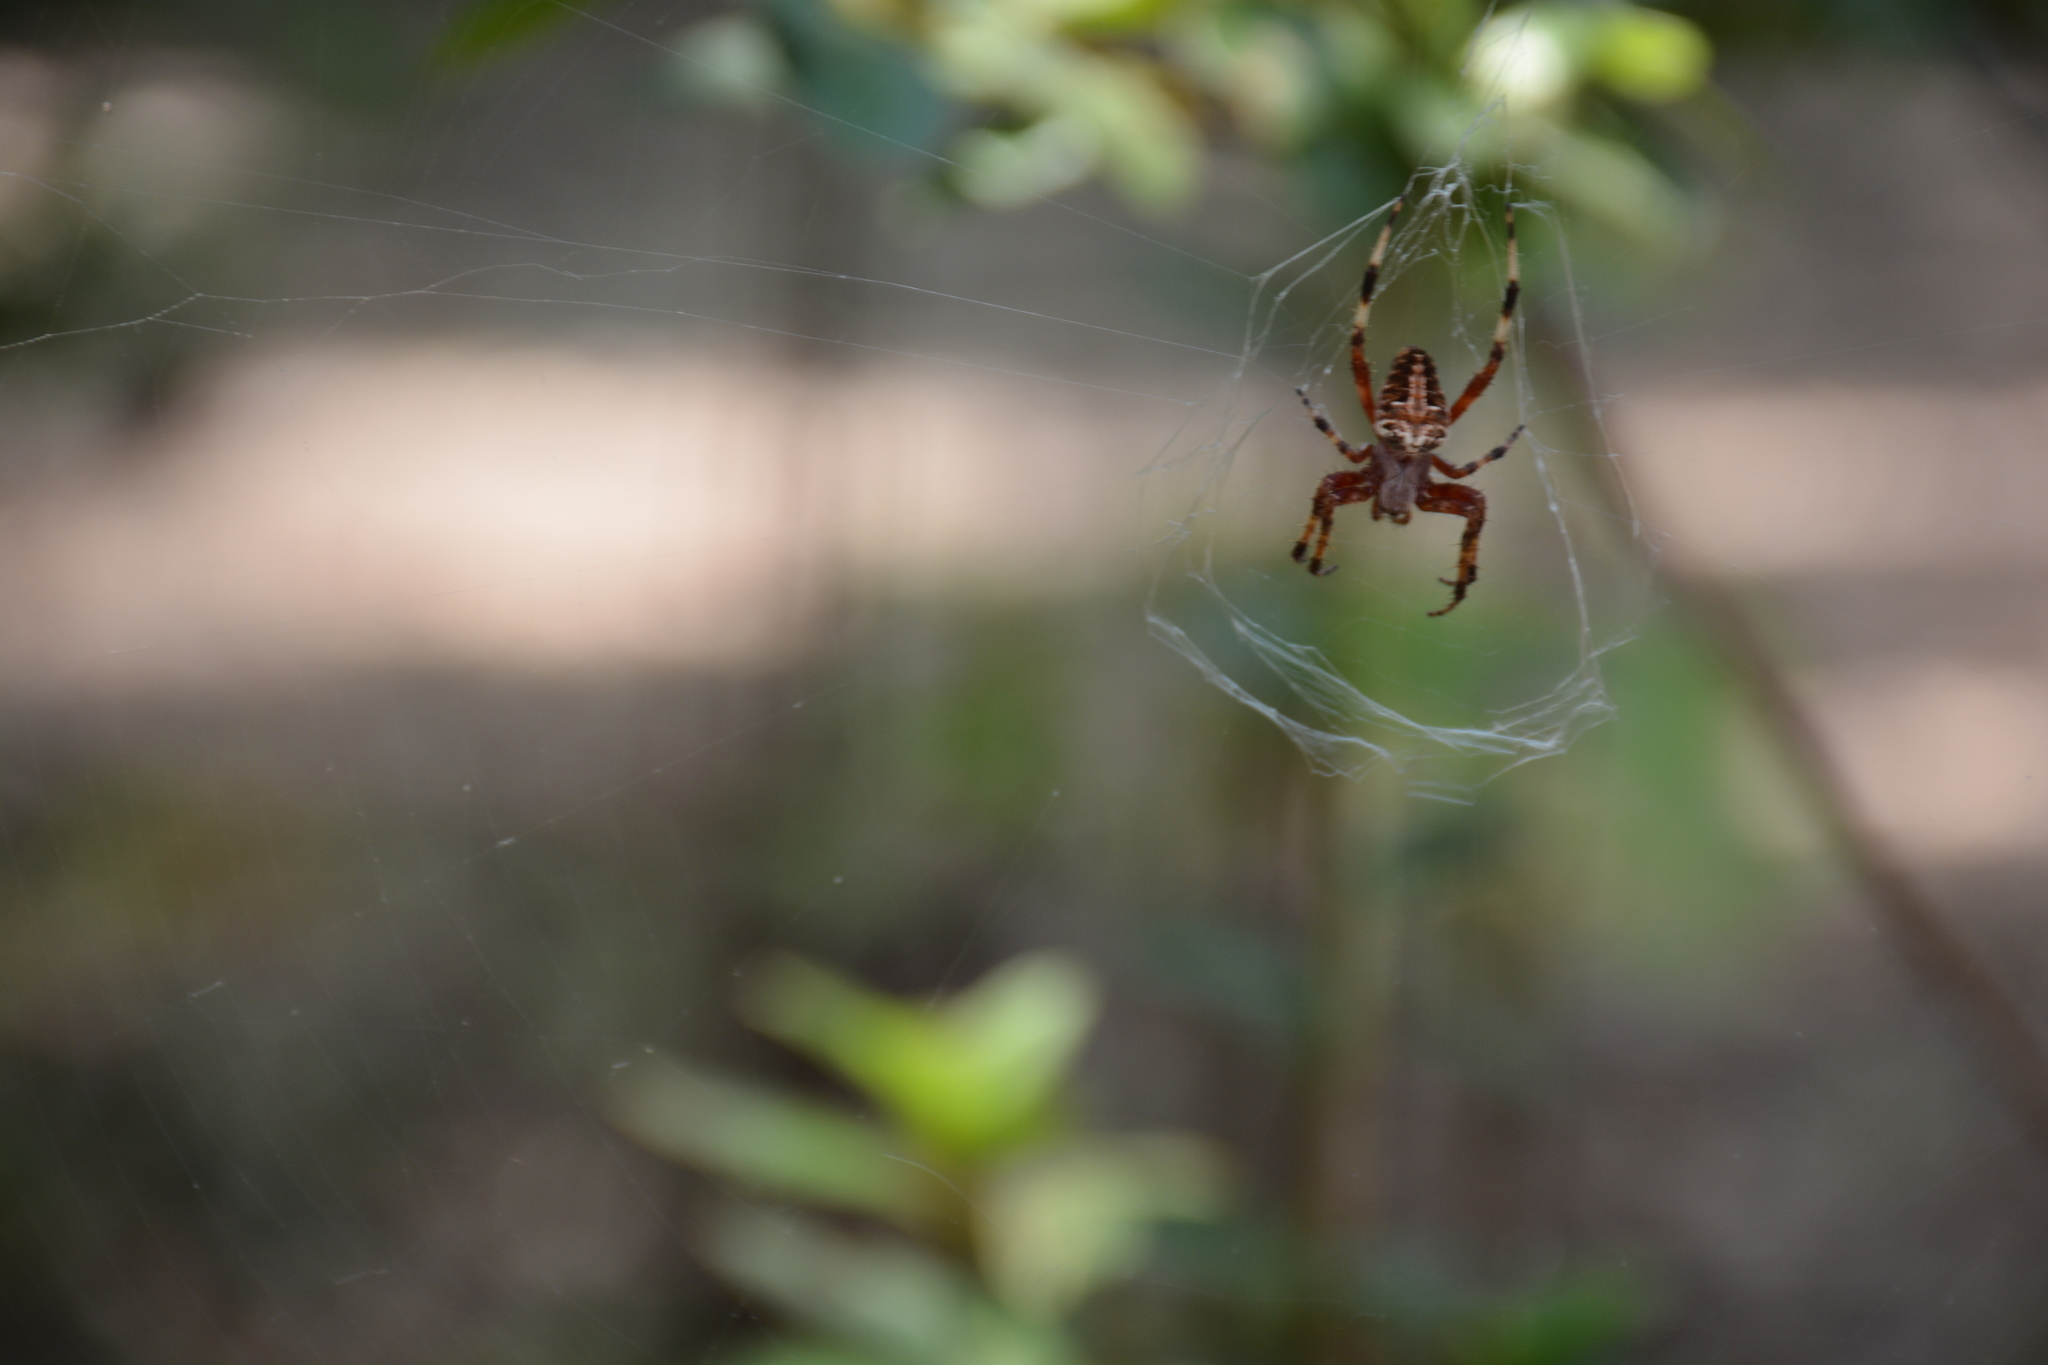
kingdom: Animalia
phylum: Arthropoda
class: Arachnida
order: Araneae
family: Araneidae
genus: Neoscona
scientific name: Neoscona domiciliorum
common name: Red-femured spotted orbweaver
